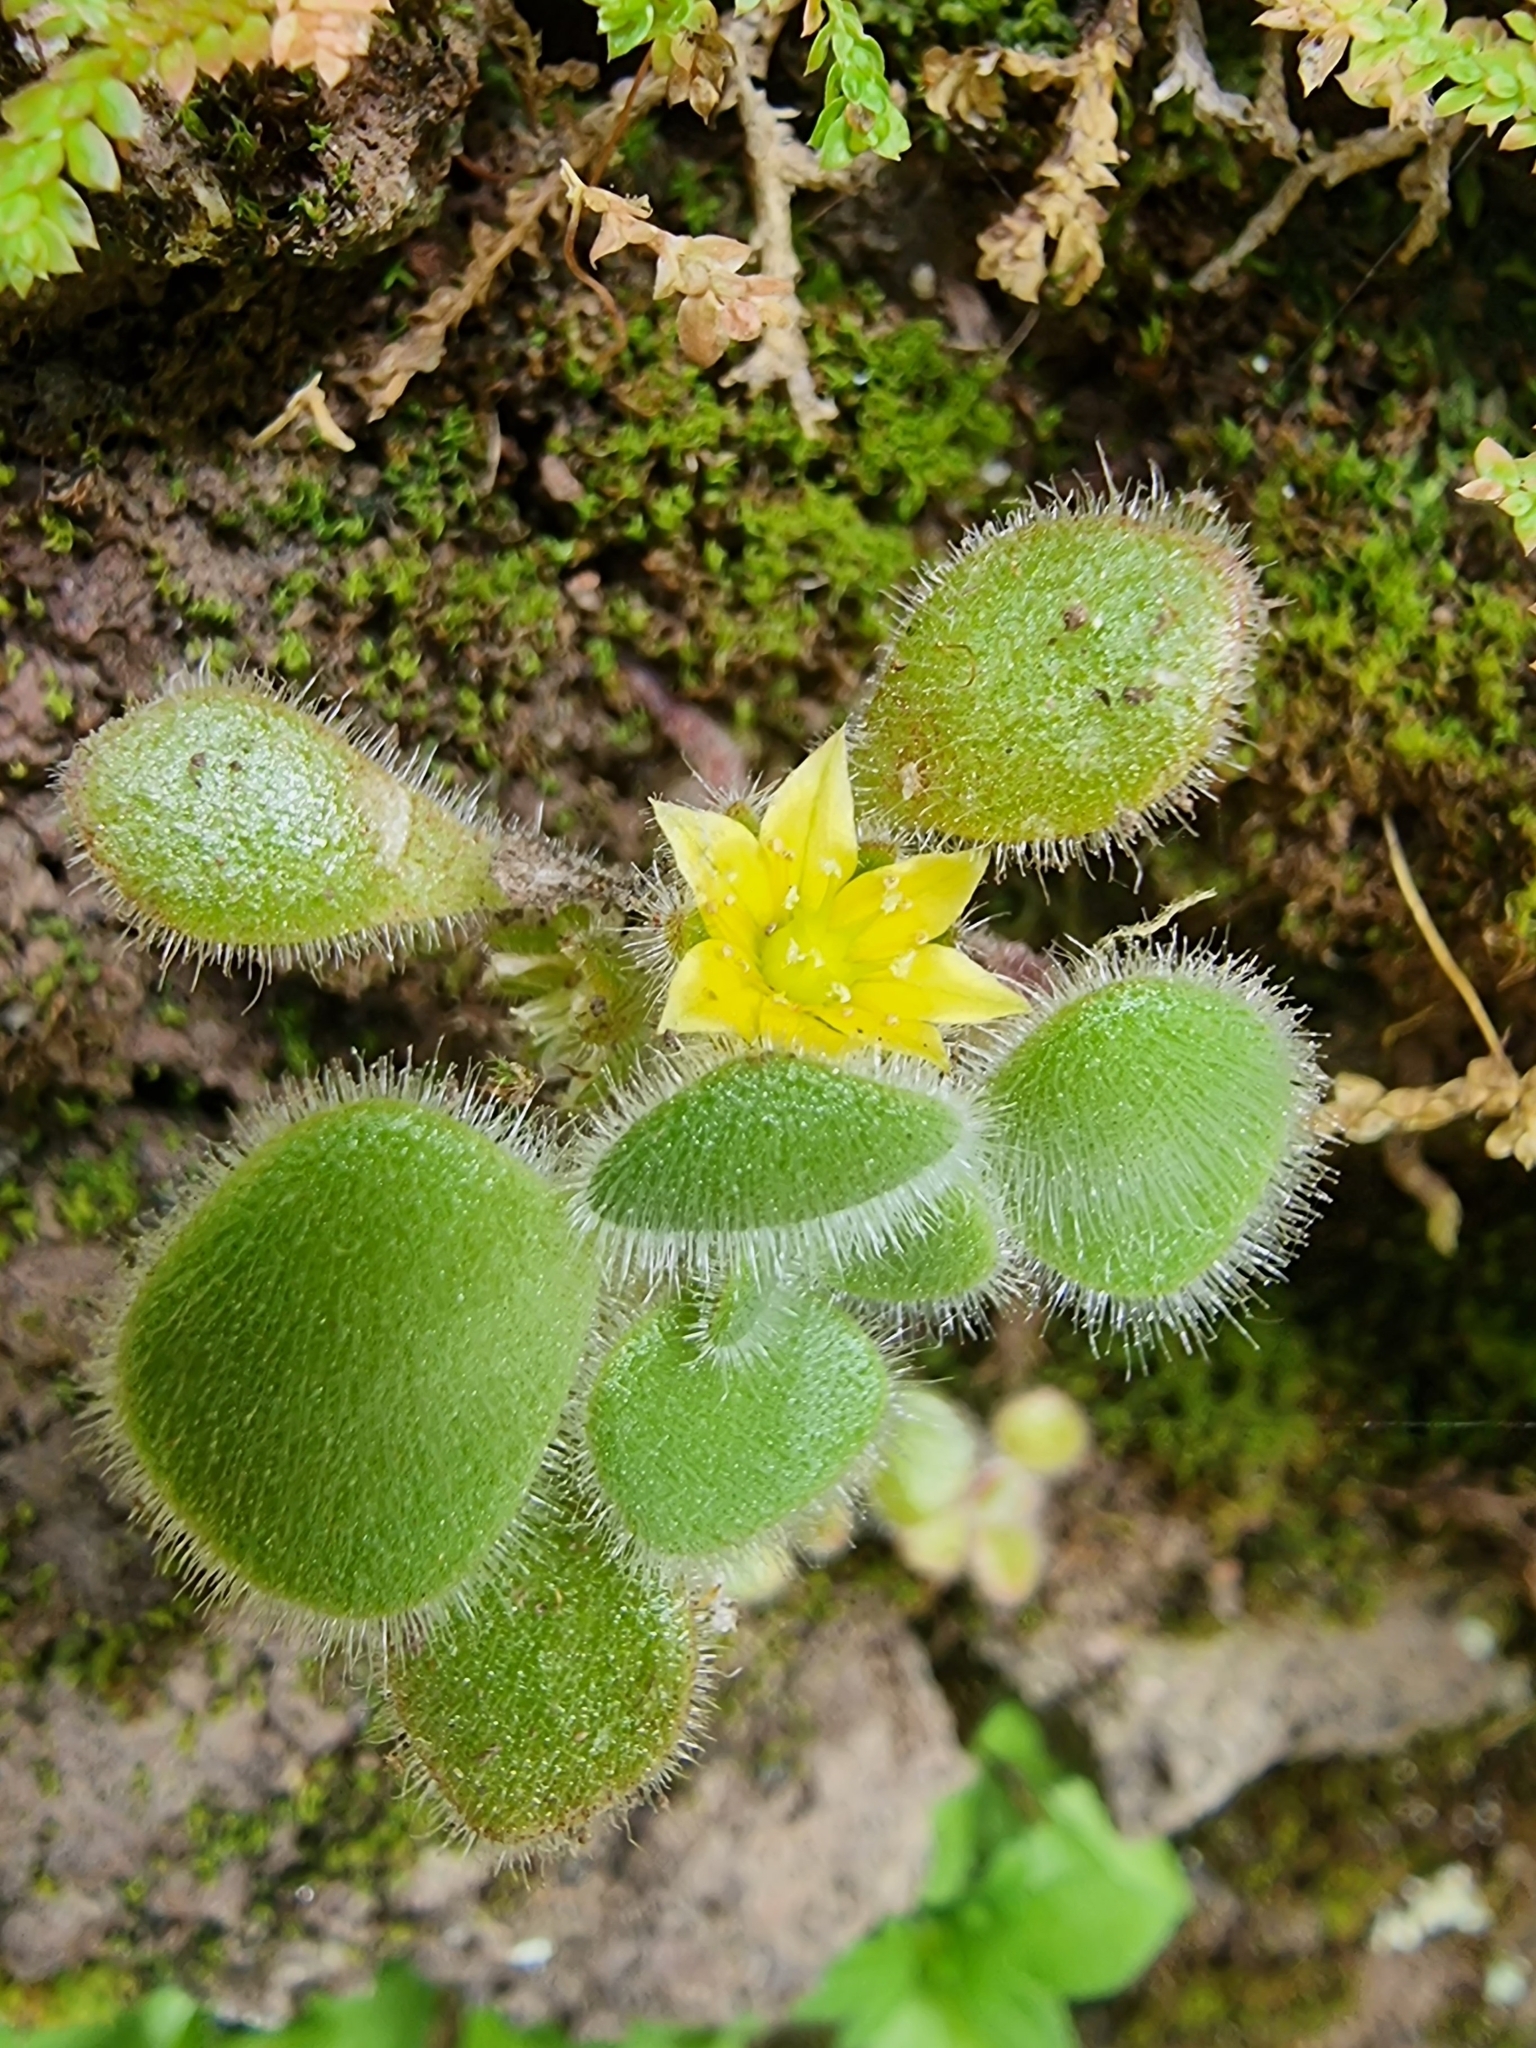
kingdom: Plantae
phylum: Tracheophyta
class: Magnoliopsida
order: Saxifragales
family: Crassulaceae
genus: Aichryson
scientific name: Aichryson villosum
